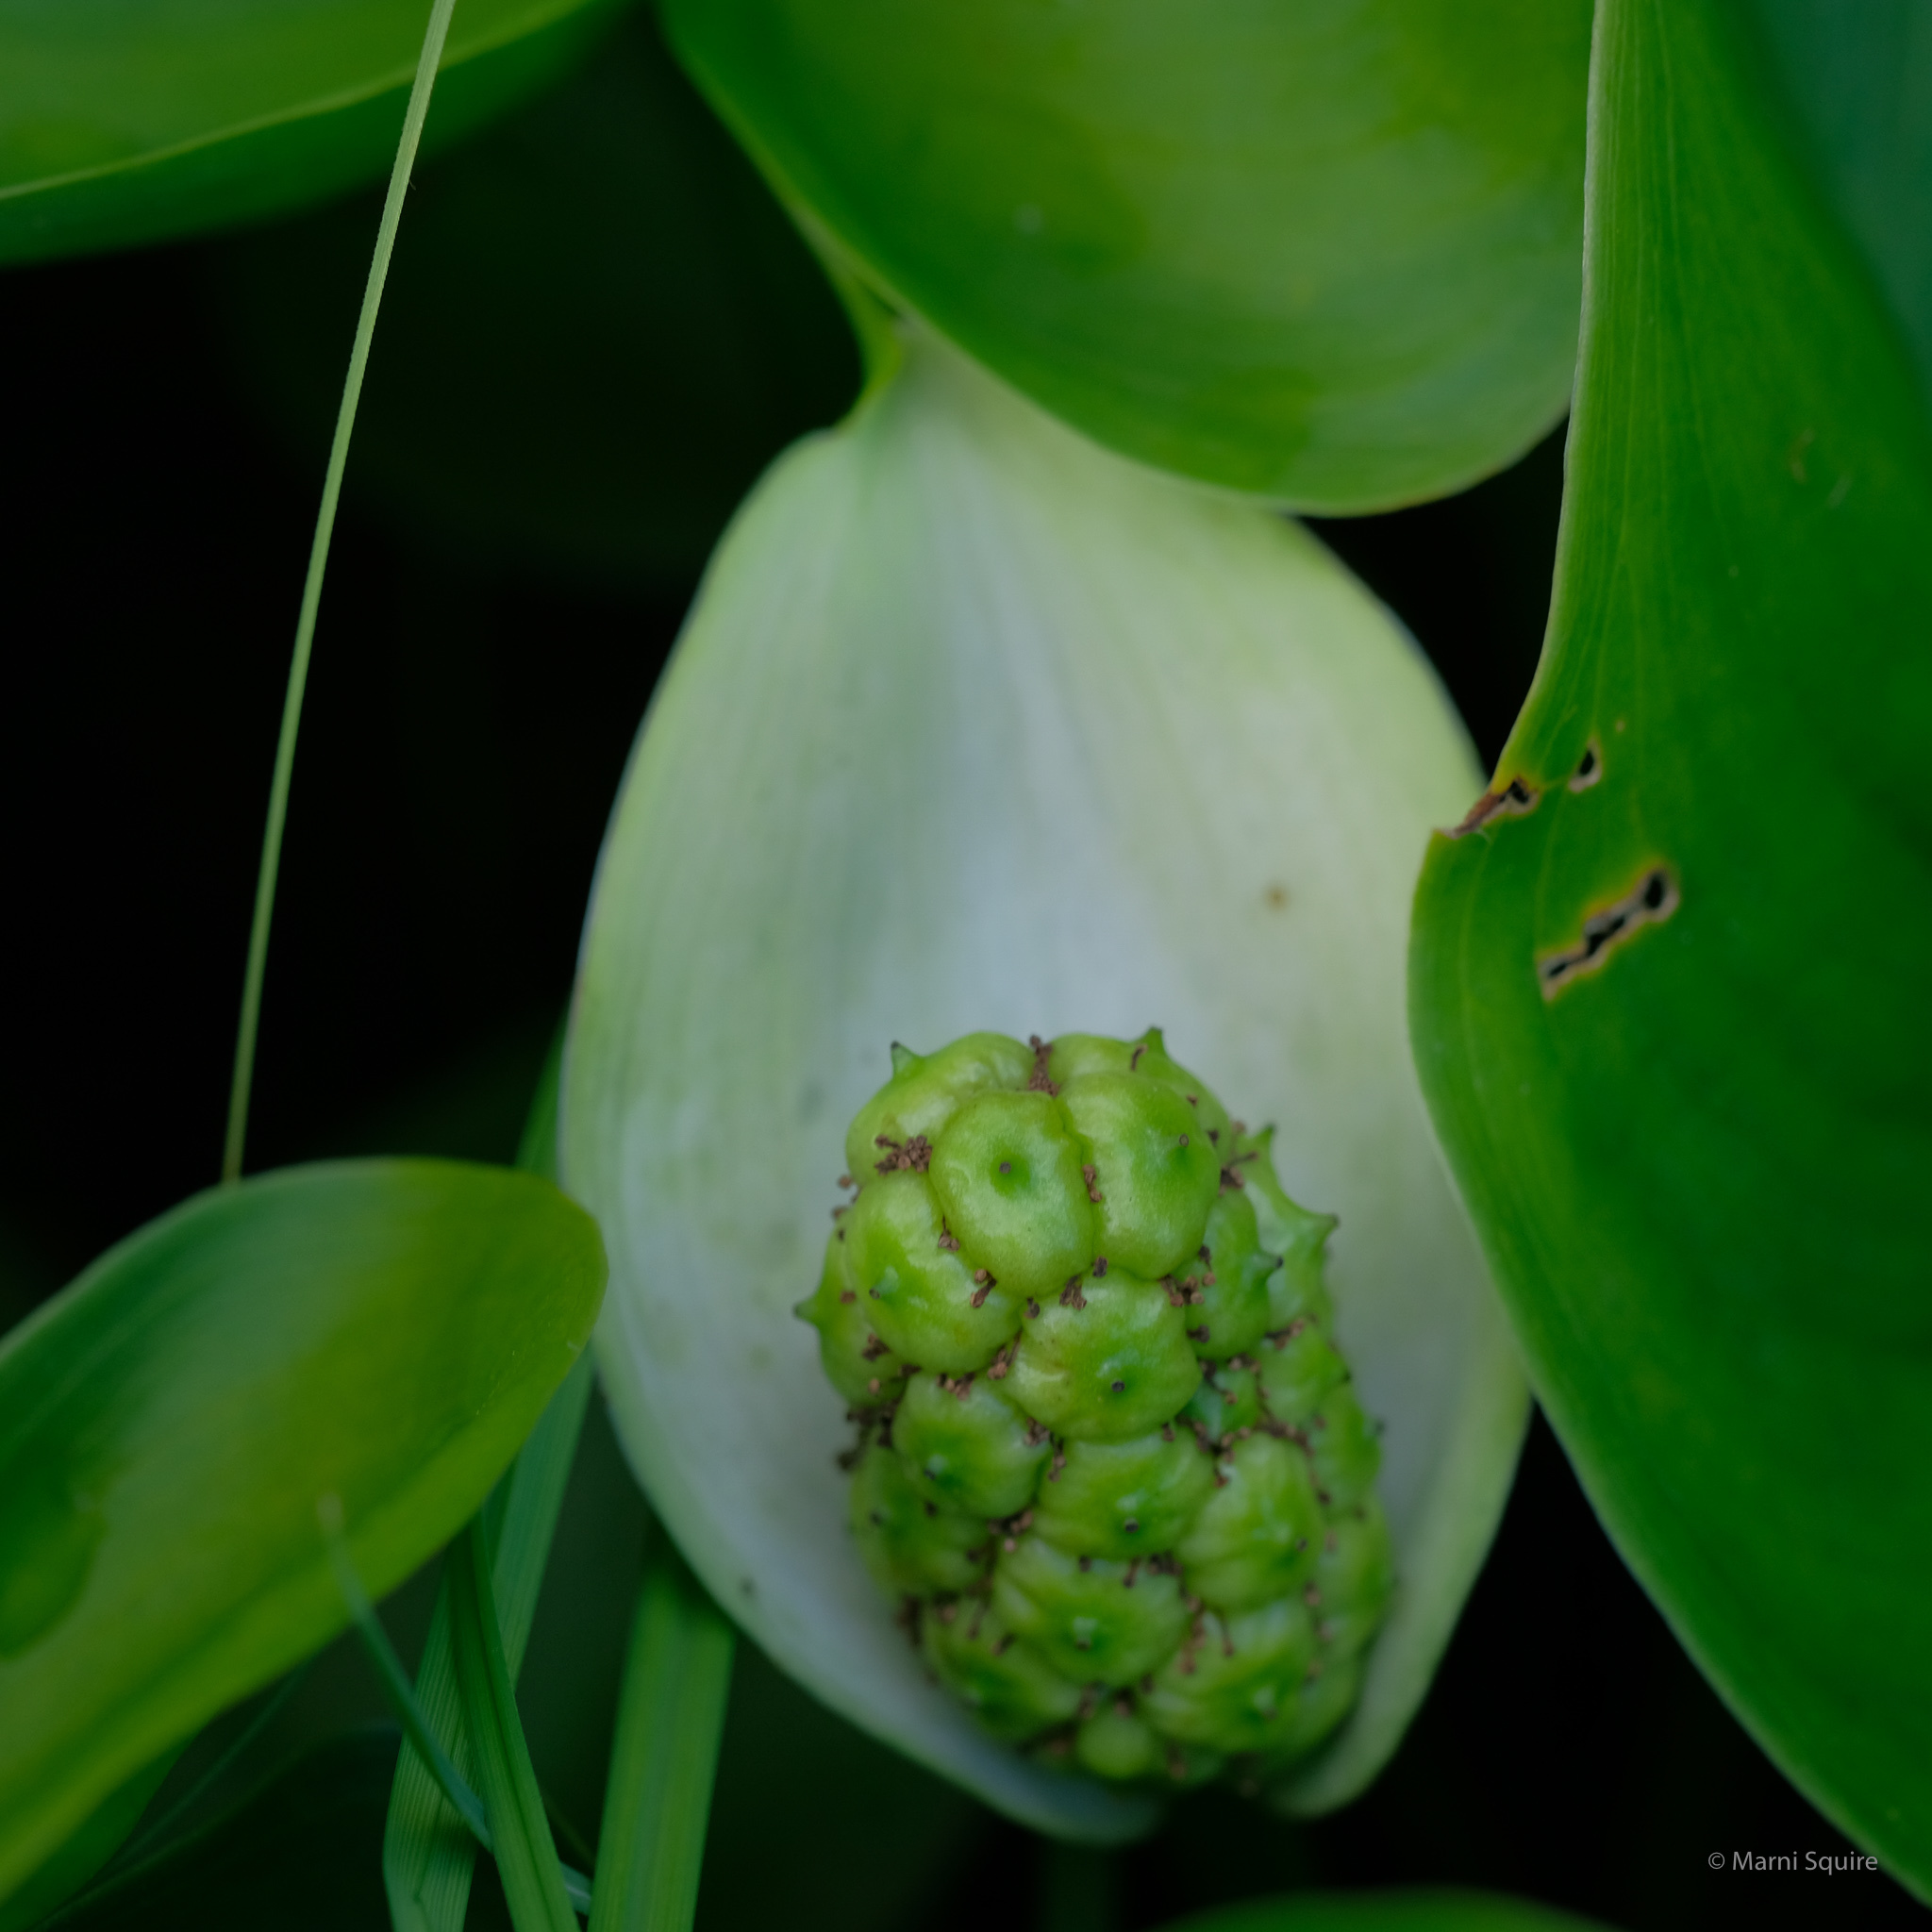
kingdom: Plantae
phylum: Tracheophyta
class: Liliopsida
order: Alismatales
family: Araceae
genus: Calla
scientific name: Calla palustris
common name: Bog arum
